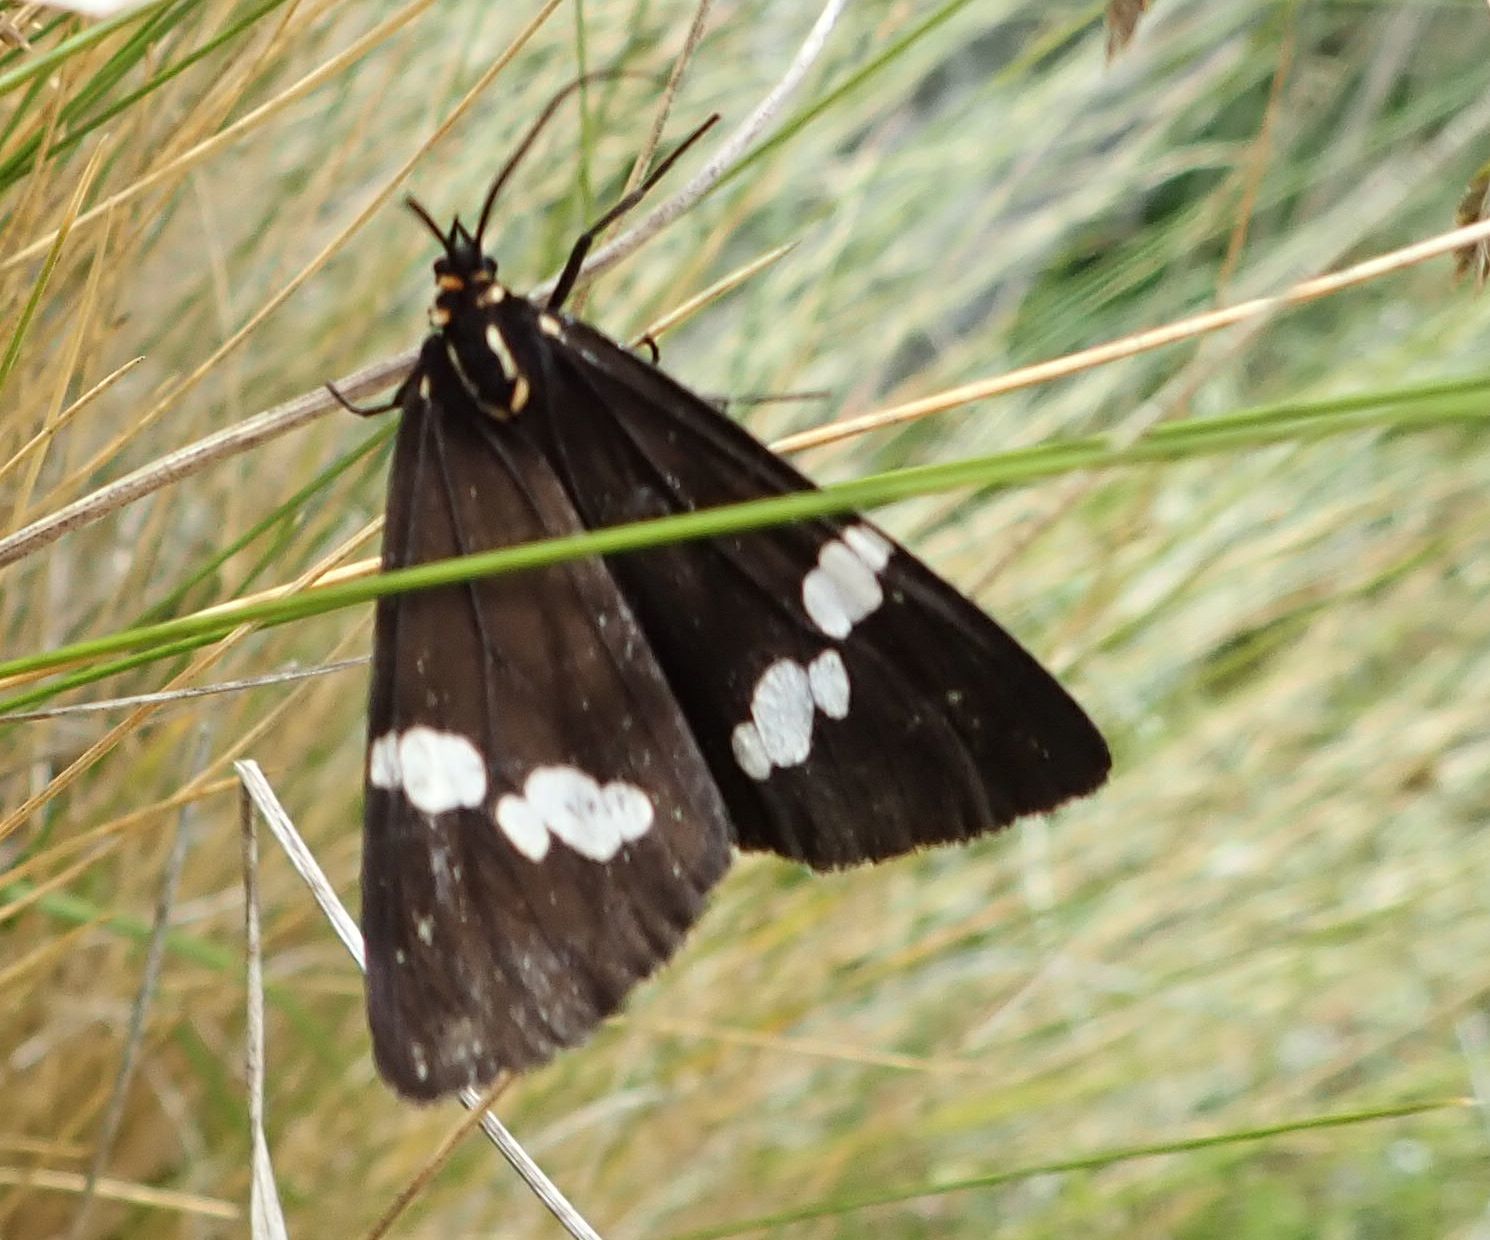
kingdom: Animalia
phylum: Arthropoda
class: Insecta
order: Lepidoptera
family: Erebidae
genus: Nyctemera
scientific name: Nyctemera annulatum
